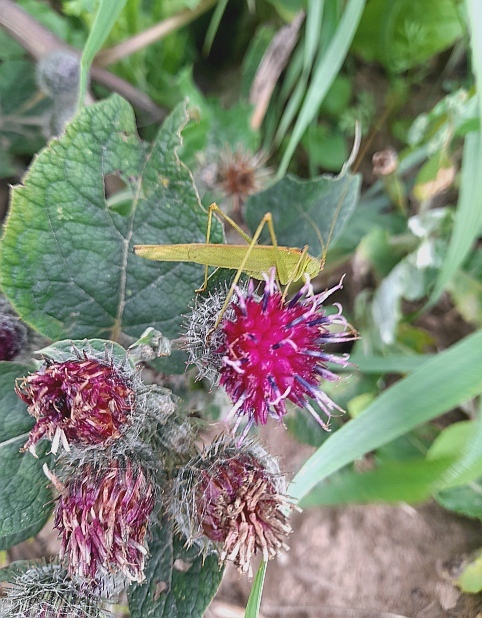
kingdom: Plantae
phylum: Tracheophyta
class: Magnoliopsida
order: Asterales
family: Asteraceae
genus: Arctium
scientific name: Arctium tomentosum
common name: Woolly burdock
